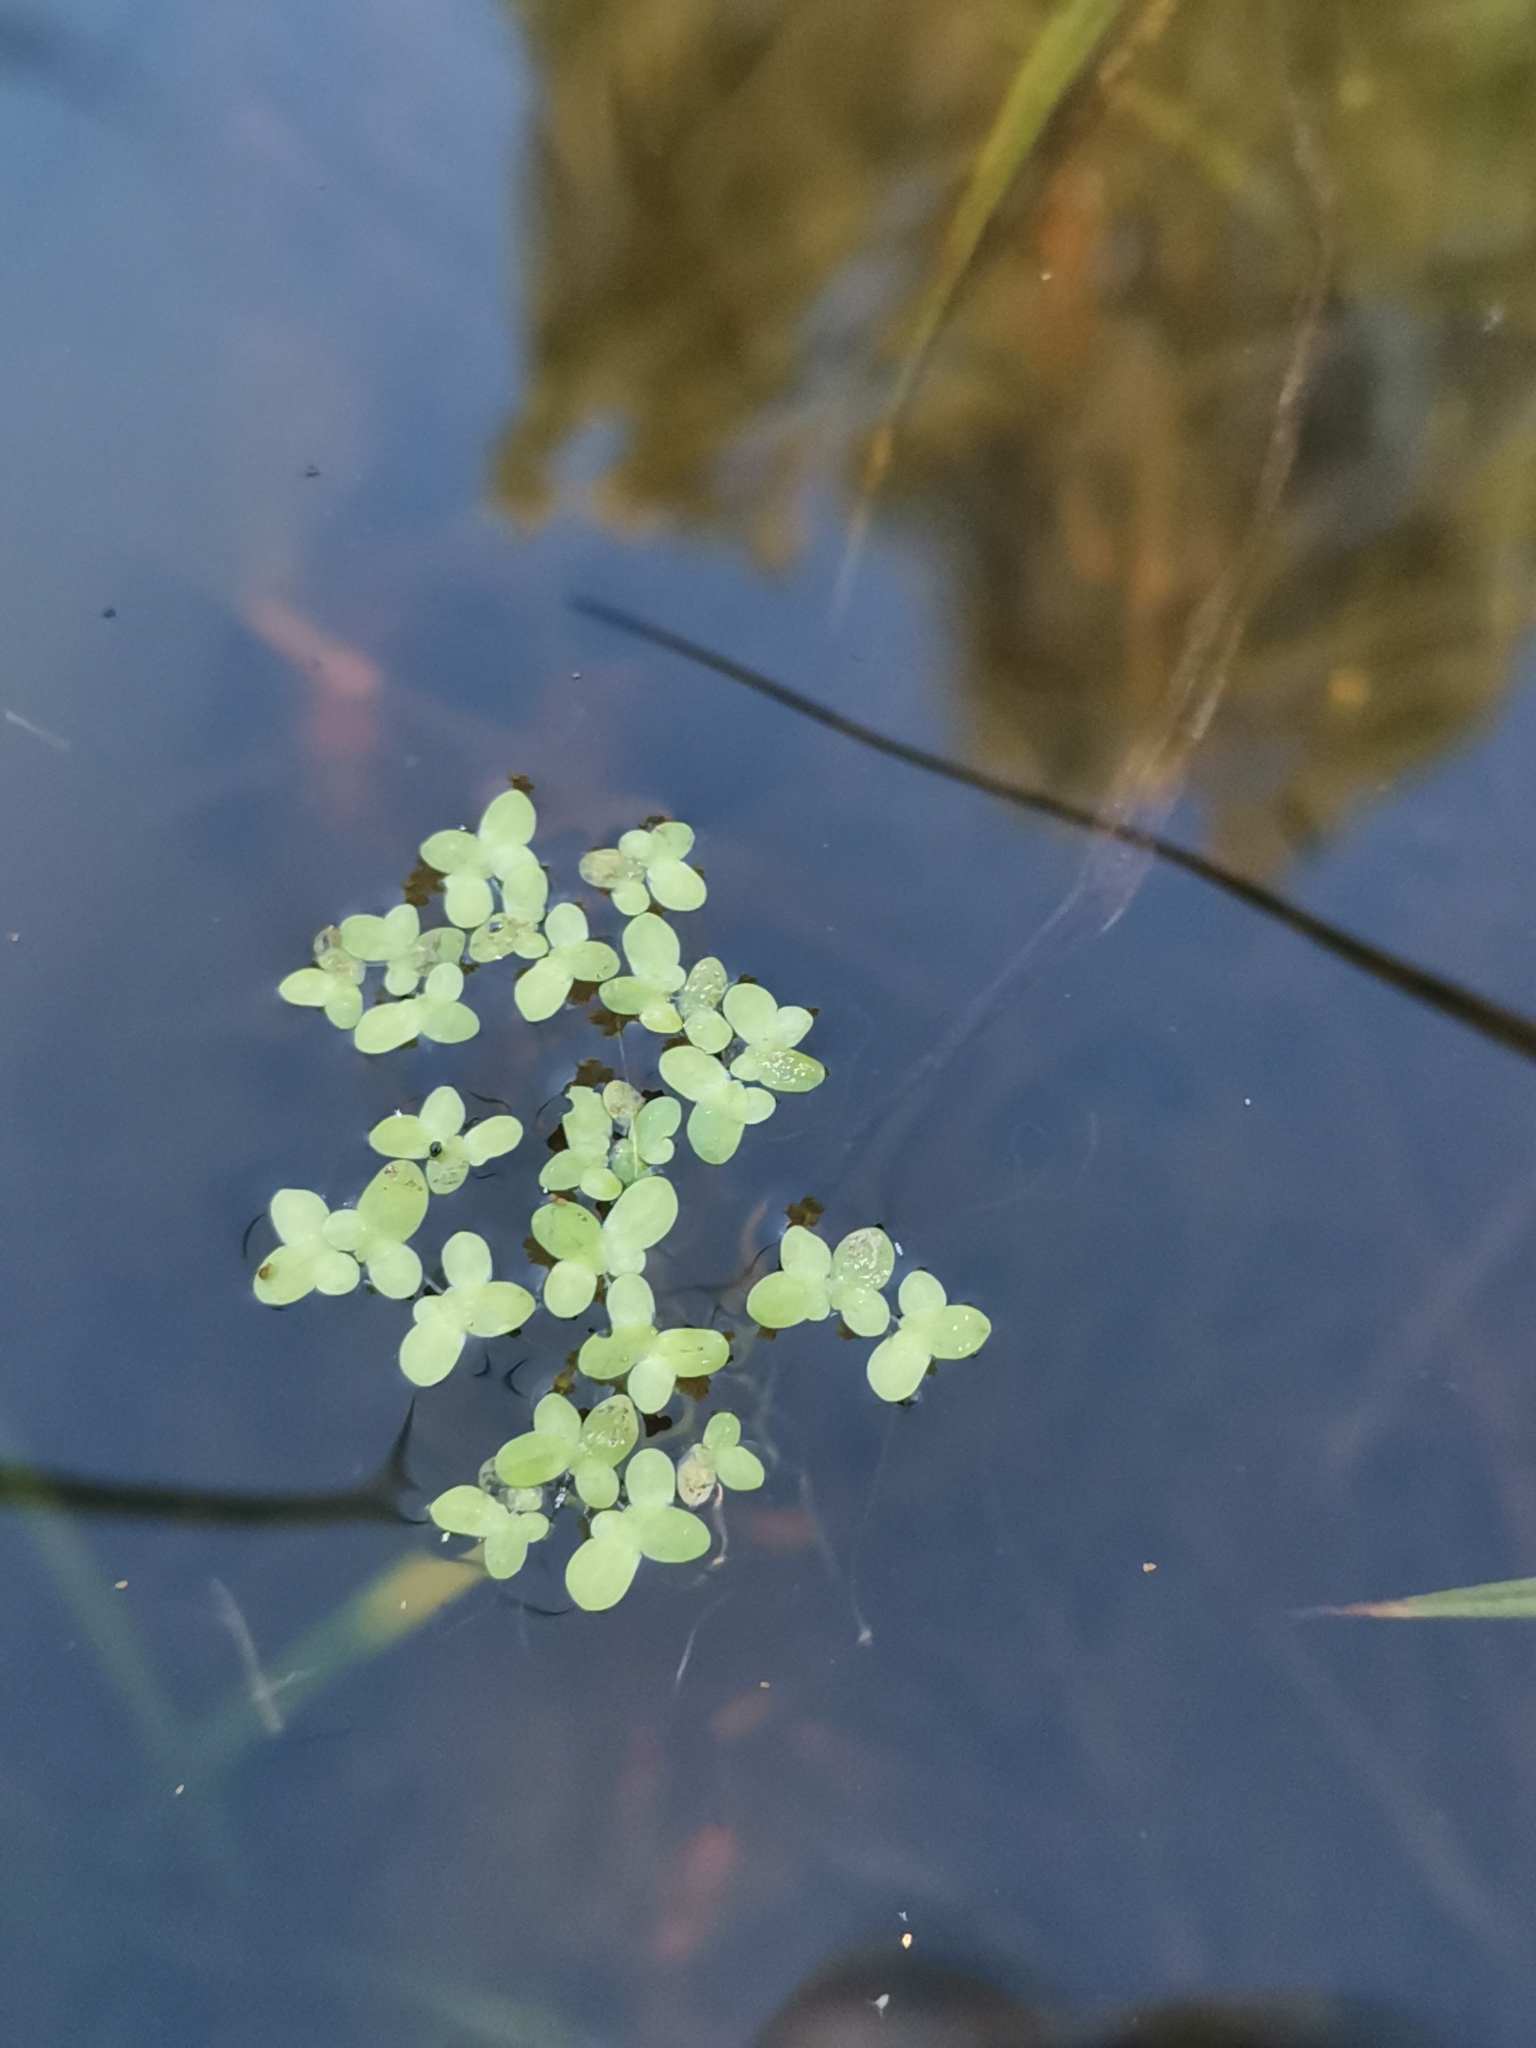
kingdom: Plantae
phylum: Tracheophyta
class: Liliopsida
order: Alismatales
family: Araceae
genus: Lemna
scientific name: Lemna minor
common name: Common duckweed
